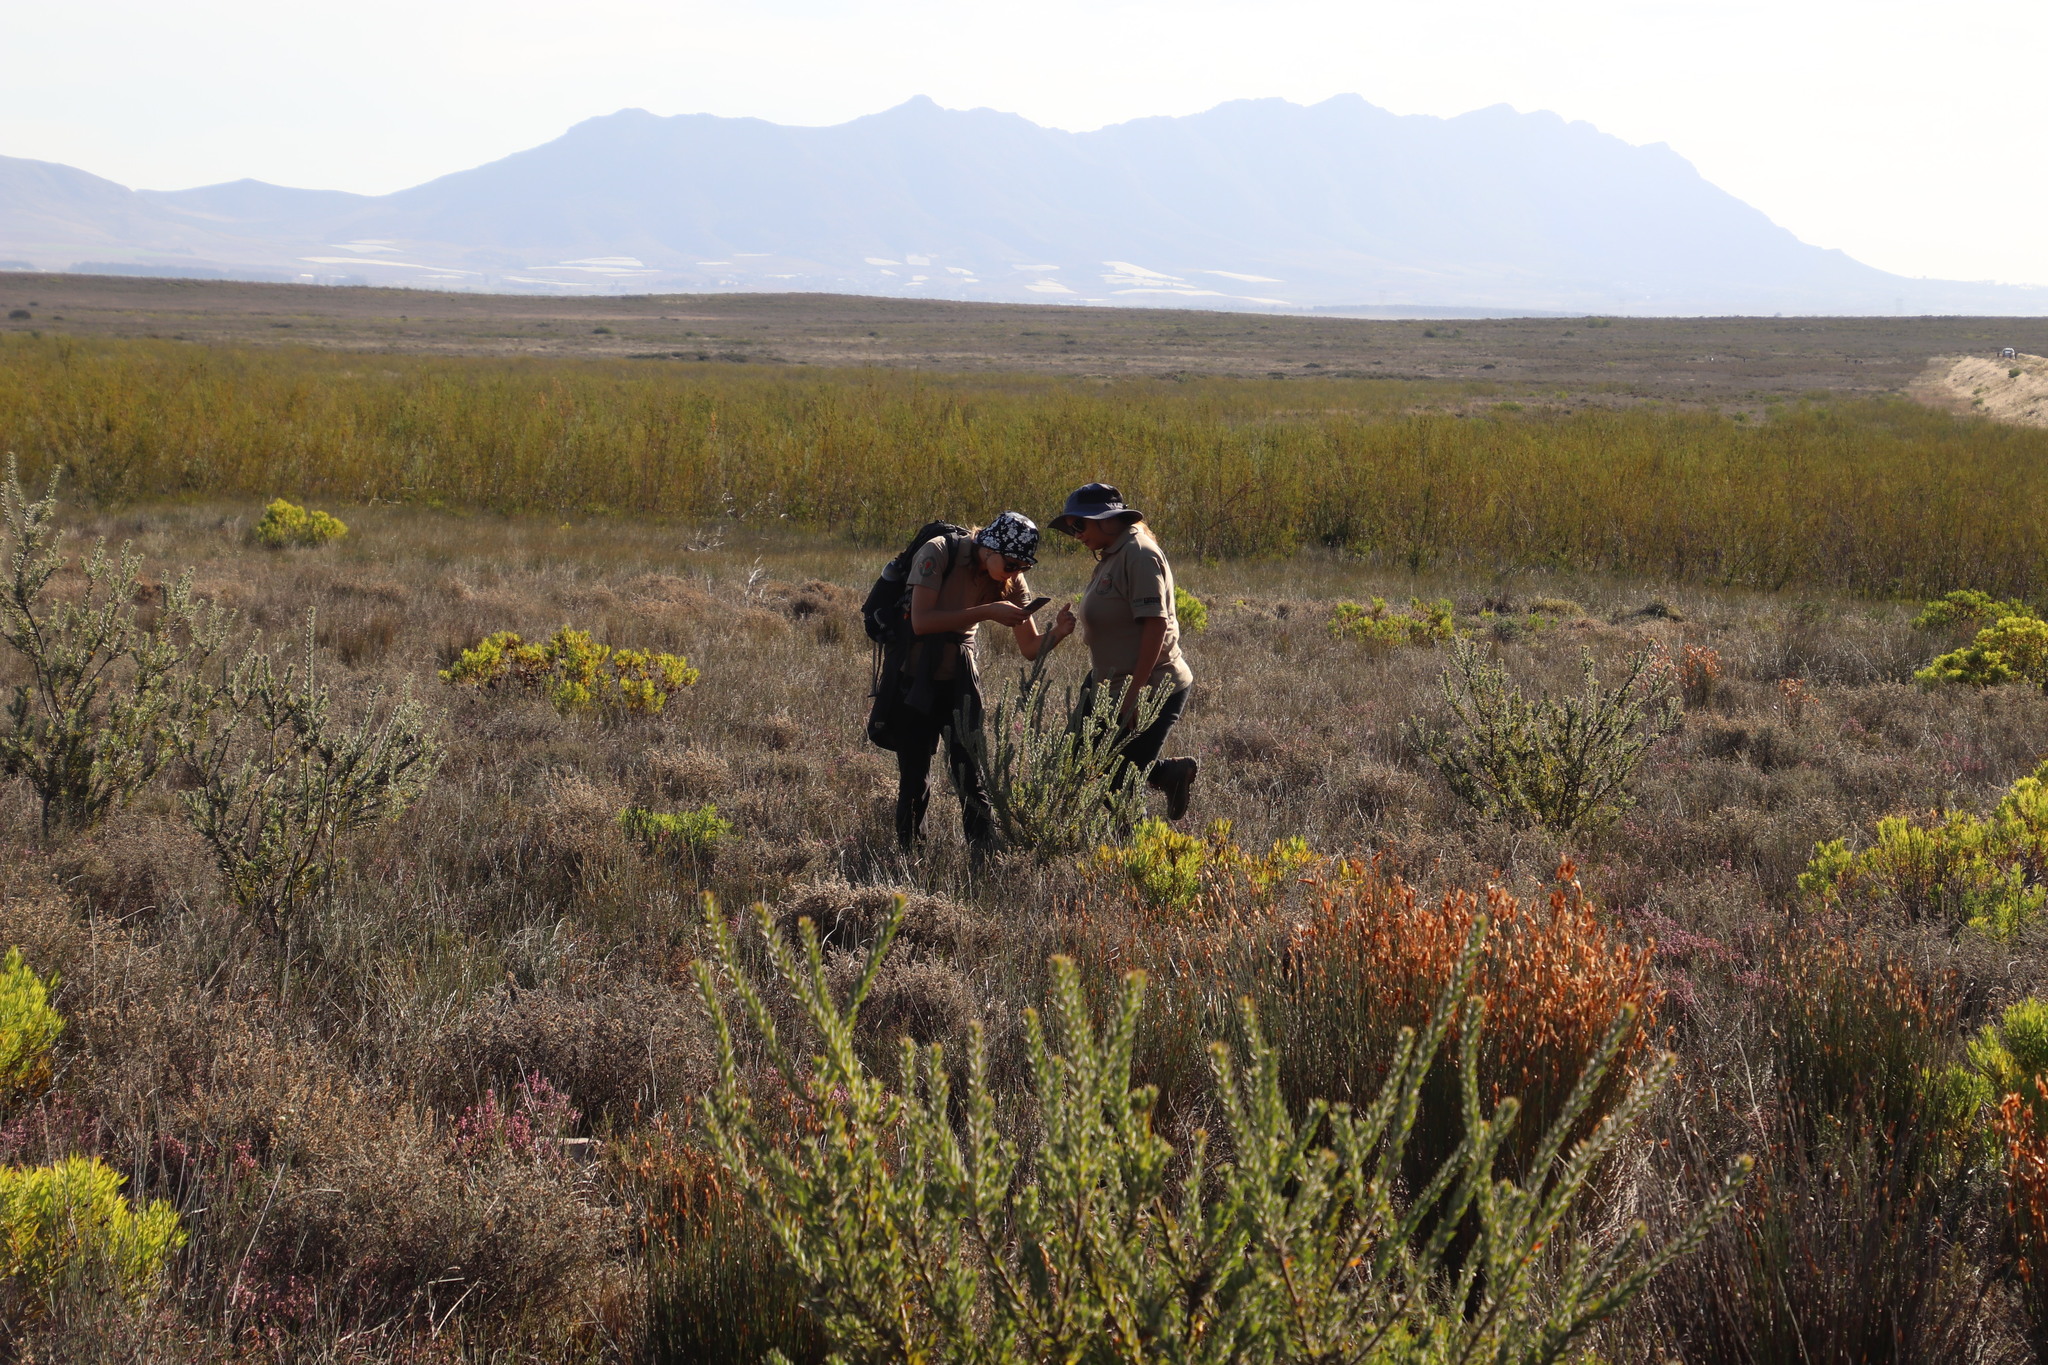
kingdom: Plantae
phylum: Tracheophyta
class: Magnoliopsida
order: Proteales
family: Proteaceae
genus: Leucadendron
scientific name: Leucadendron corymbosum
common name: Swartveld conebush
